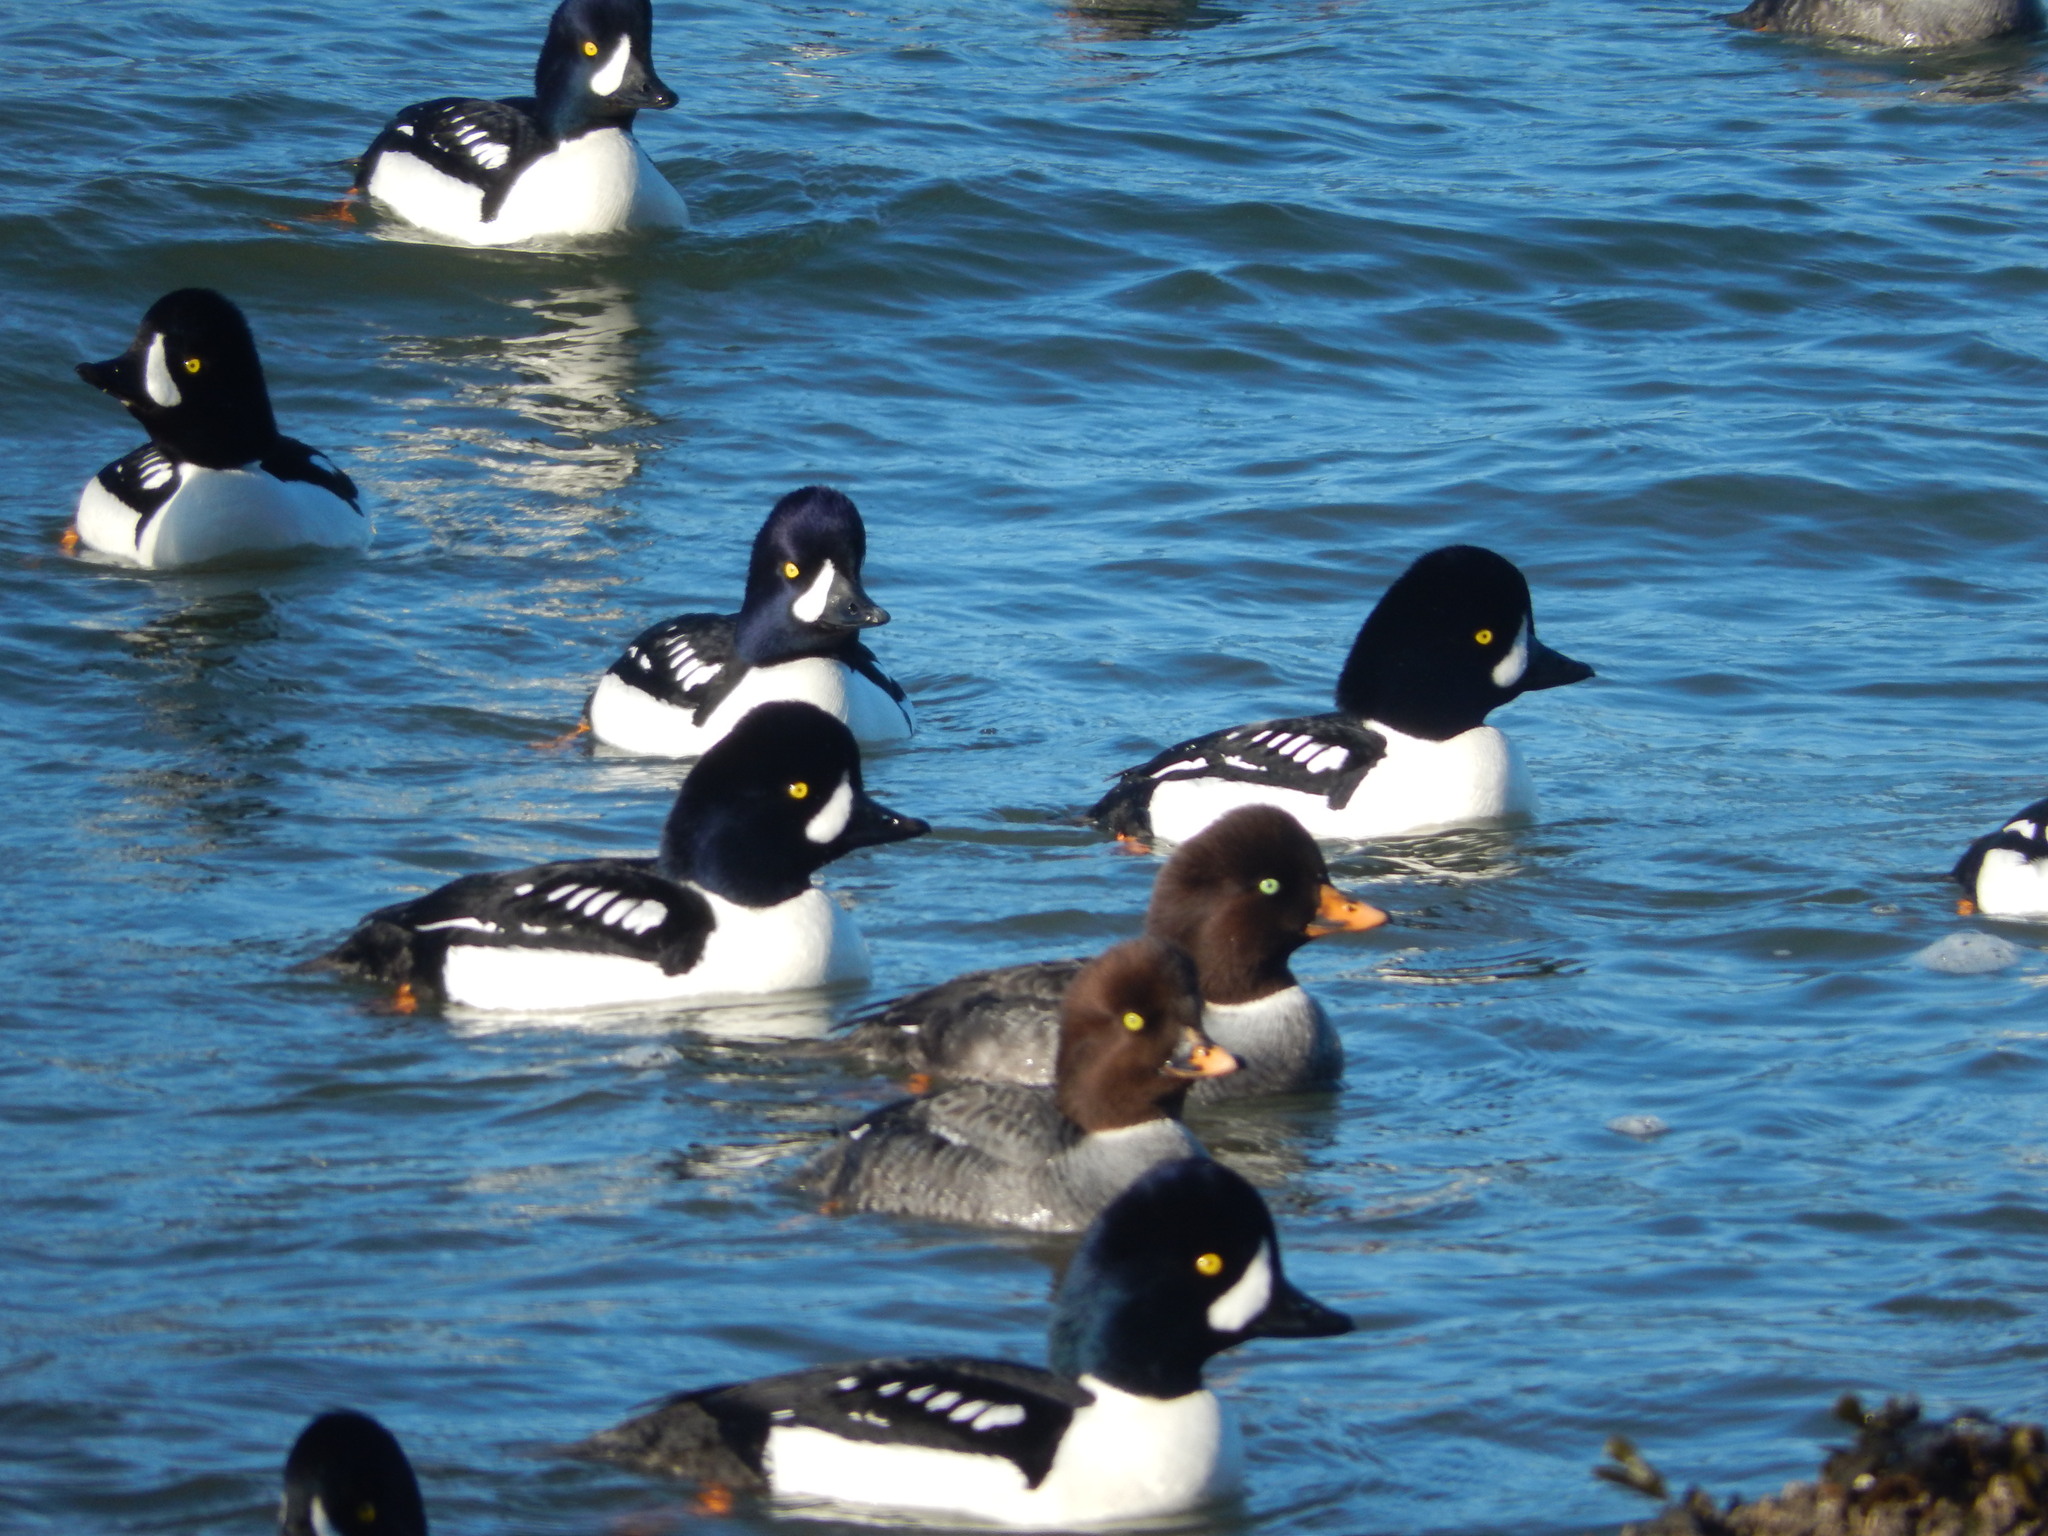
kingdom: Animalia
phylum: Chordata
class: Aves
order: Anseriformes
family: Anatidae
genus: Bucephala
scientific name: Bucephala islandica
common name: Barrow's goldeneye
